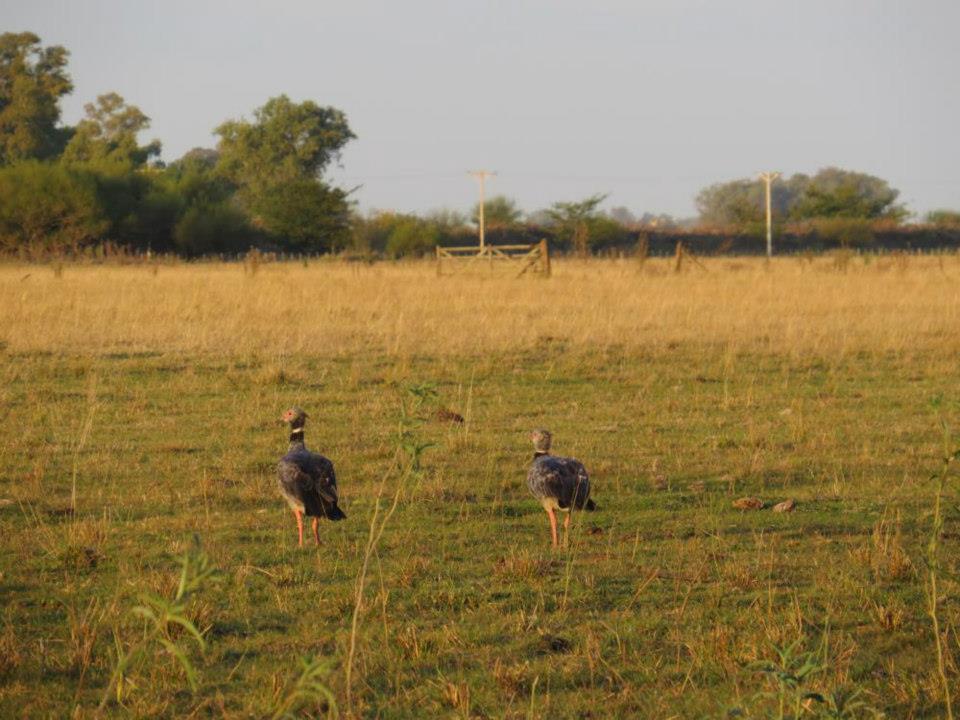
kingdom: Animalia
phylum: Chordata
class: Aves
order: Anseriformes
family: Anhimidae
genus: Chauna
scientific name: Chauna torquata
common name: Southern screamer
